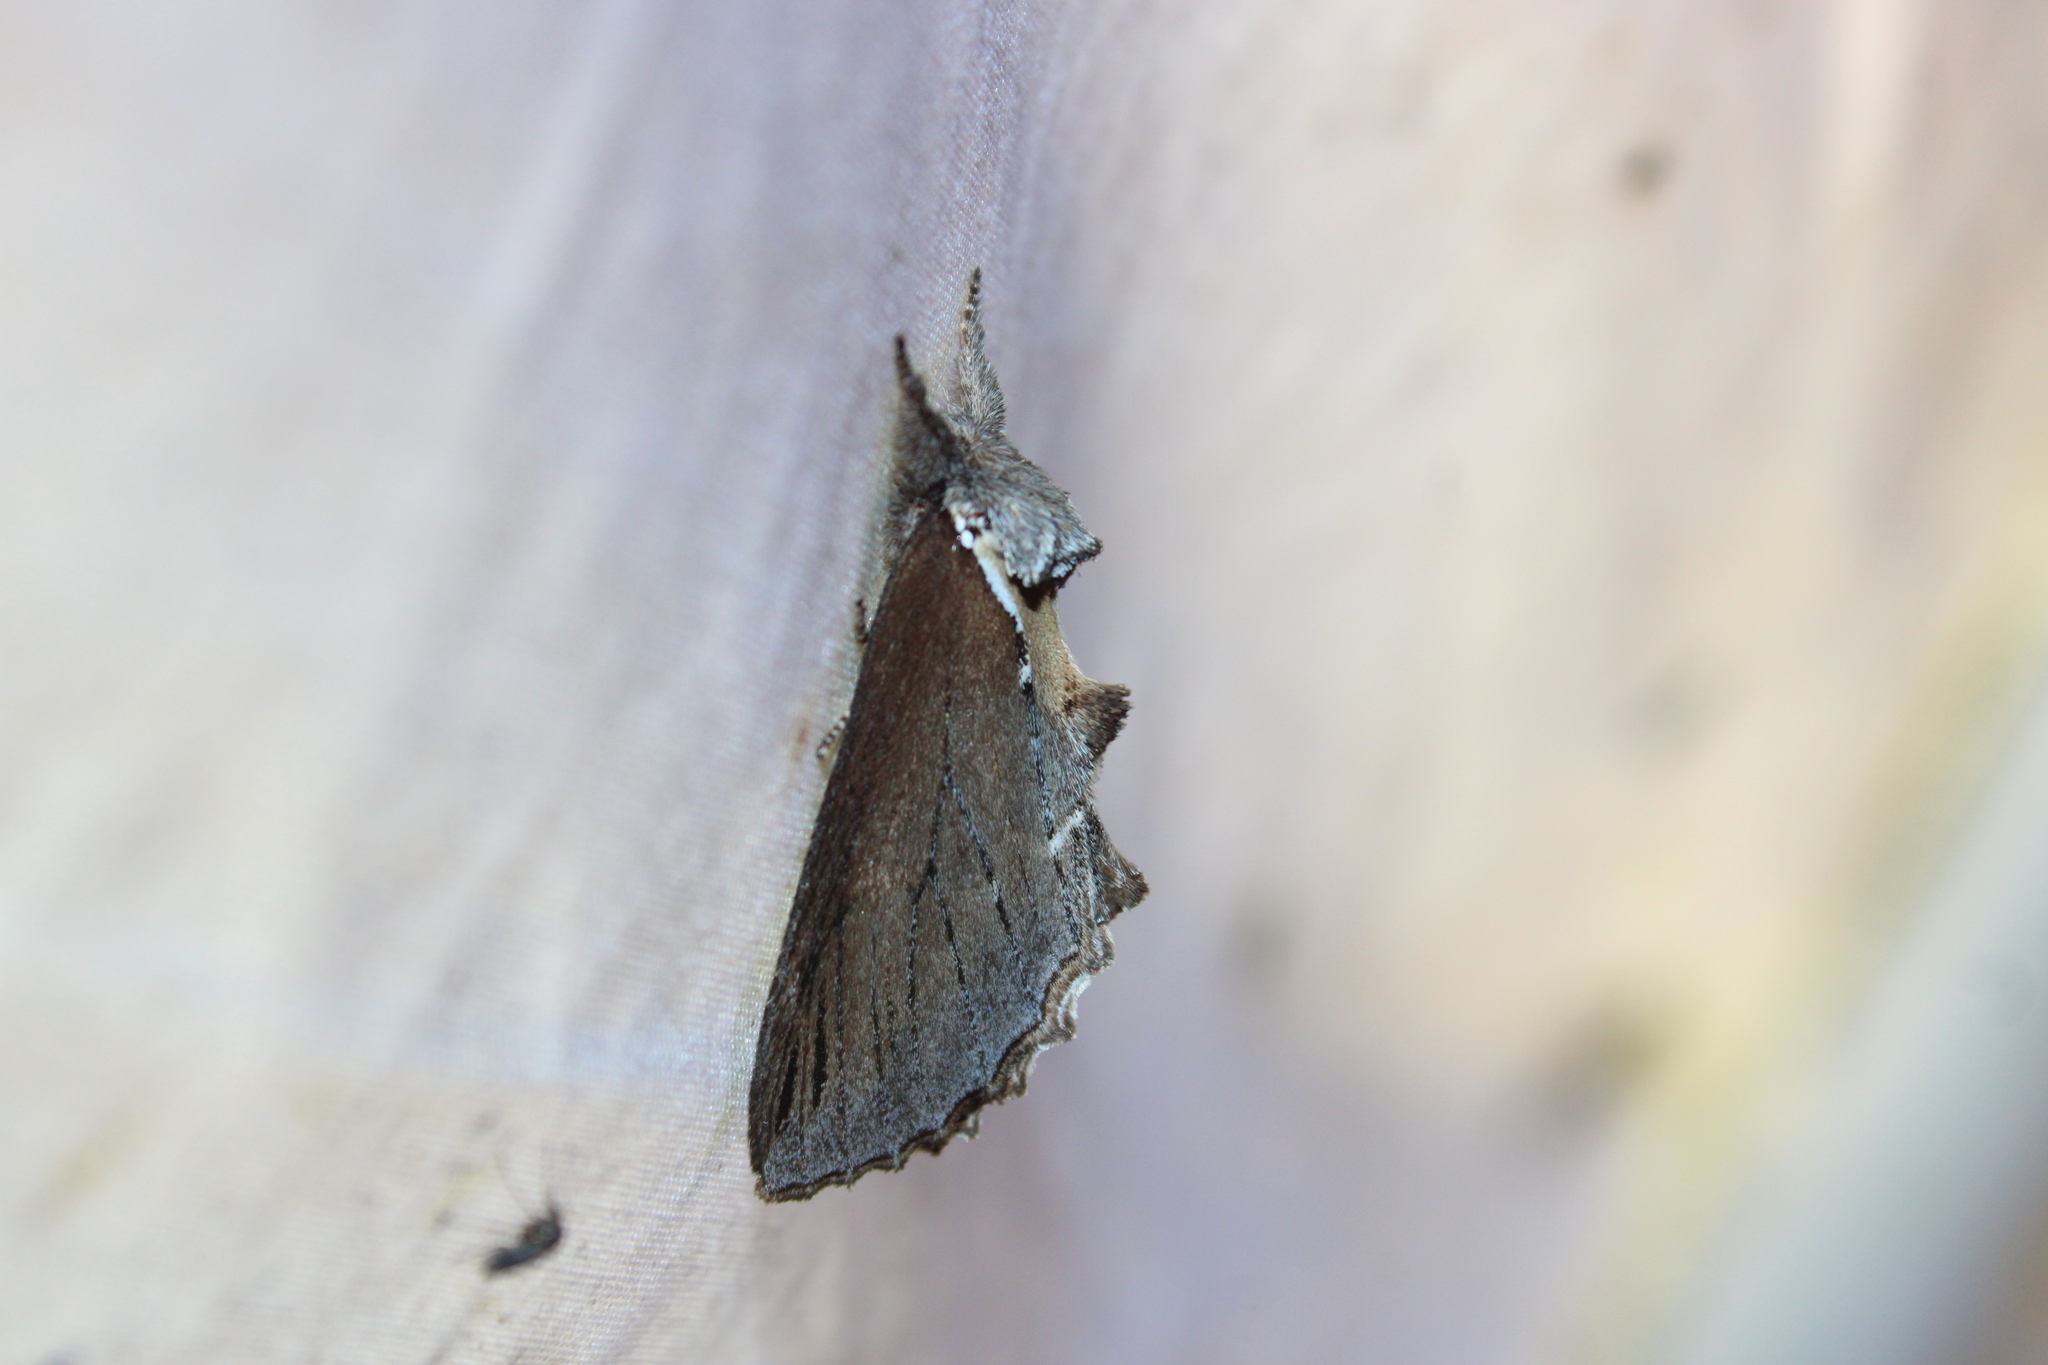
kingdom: Animalia
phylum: Arthropoda
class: Insecta
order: Lepidoptera
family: Notodontidae
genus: Pheosidea
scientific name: Pheosidea elegans
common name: Elegant prominent
